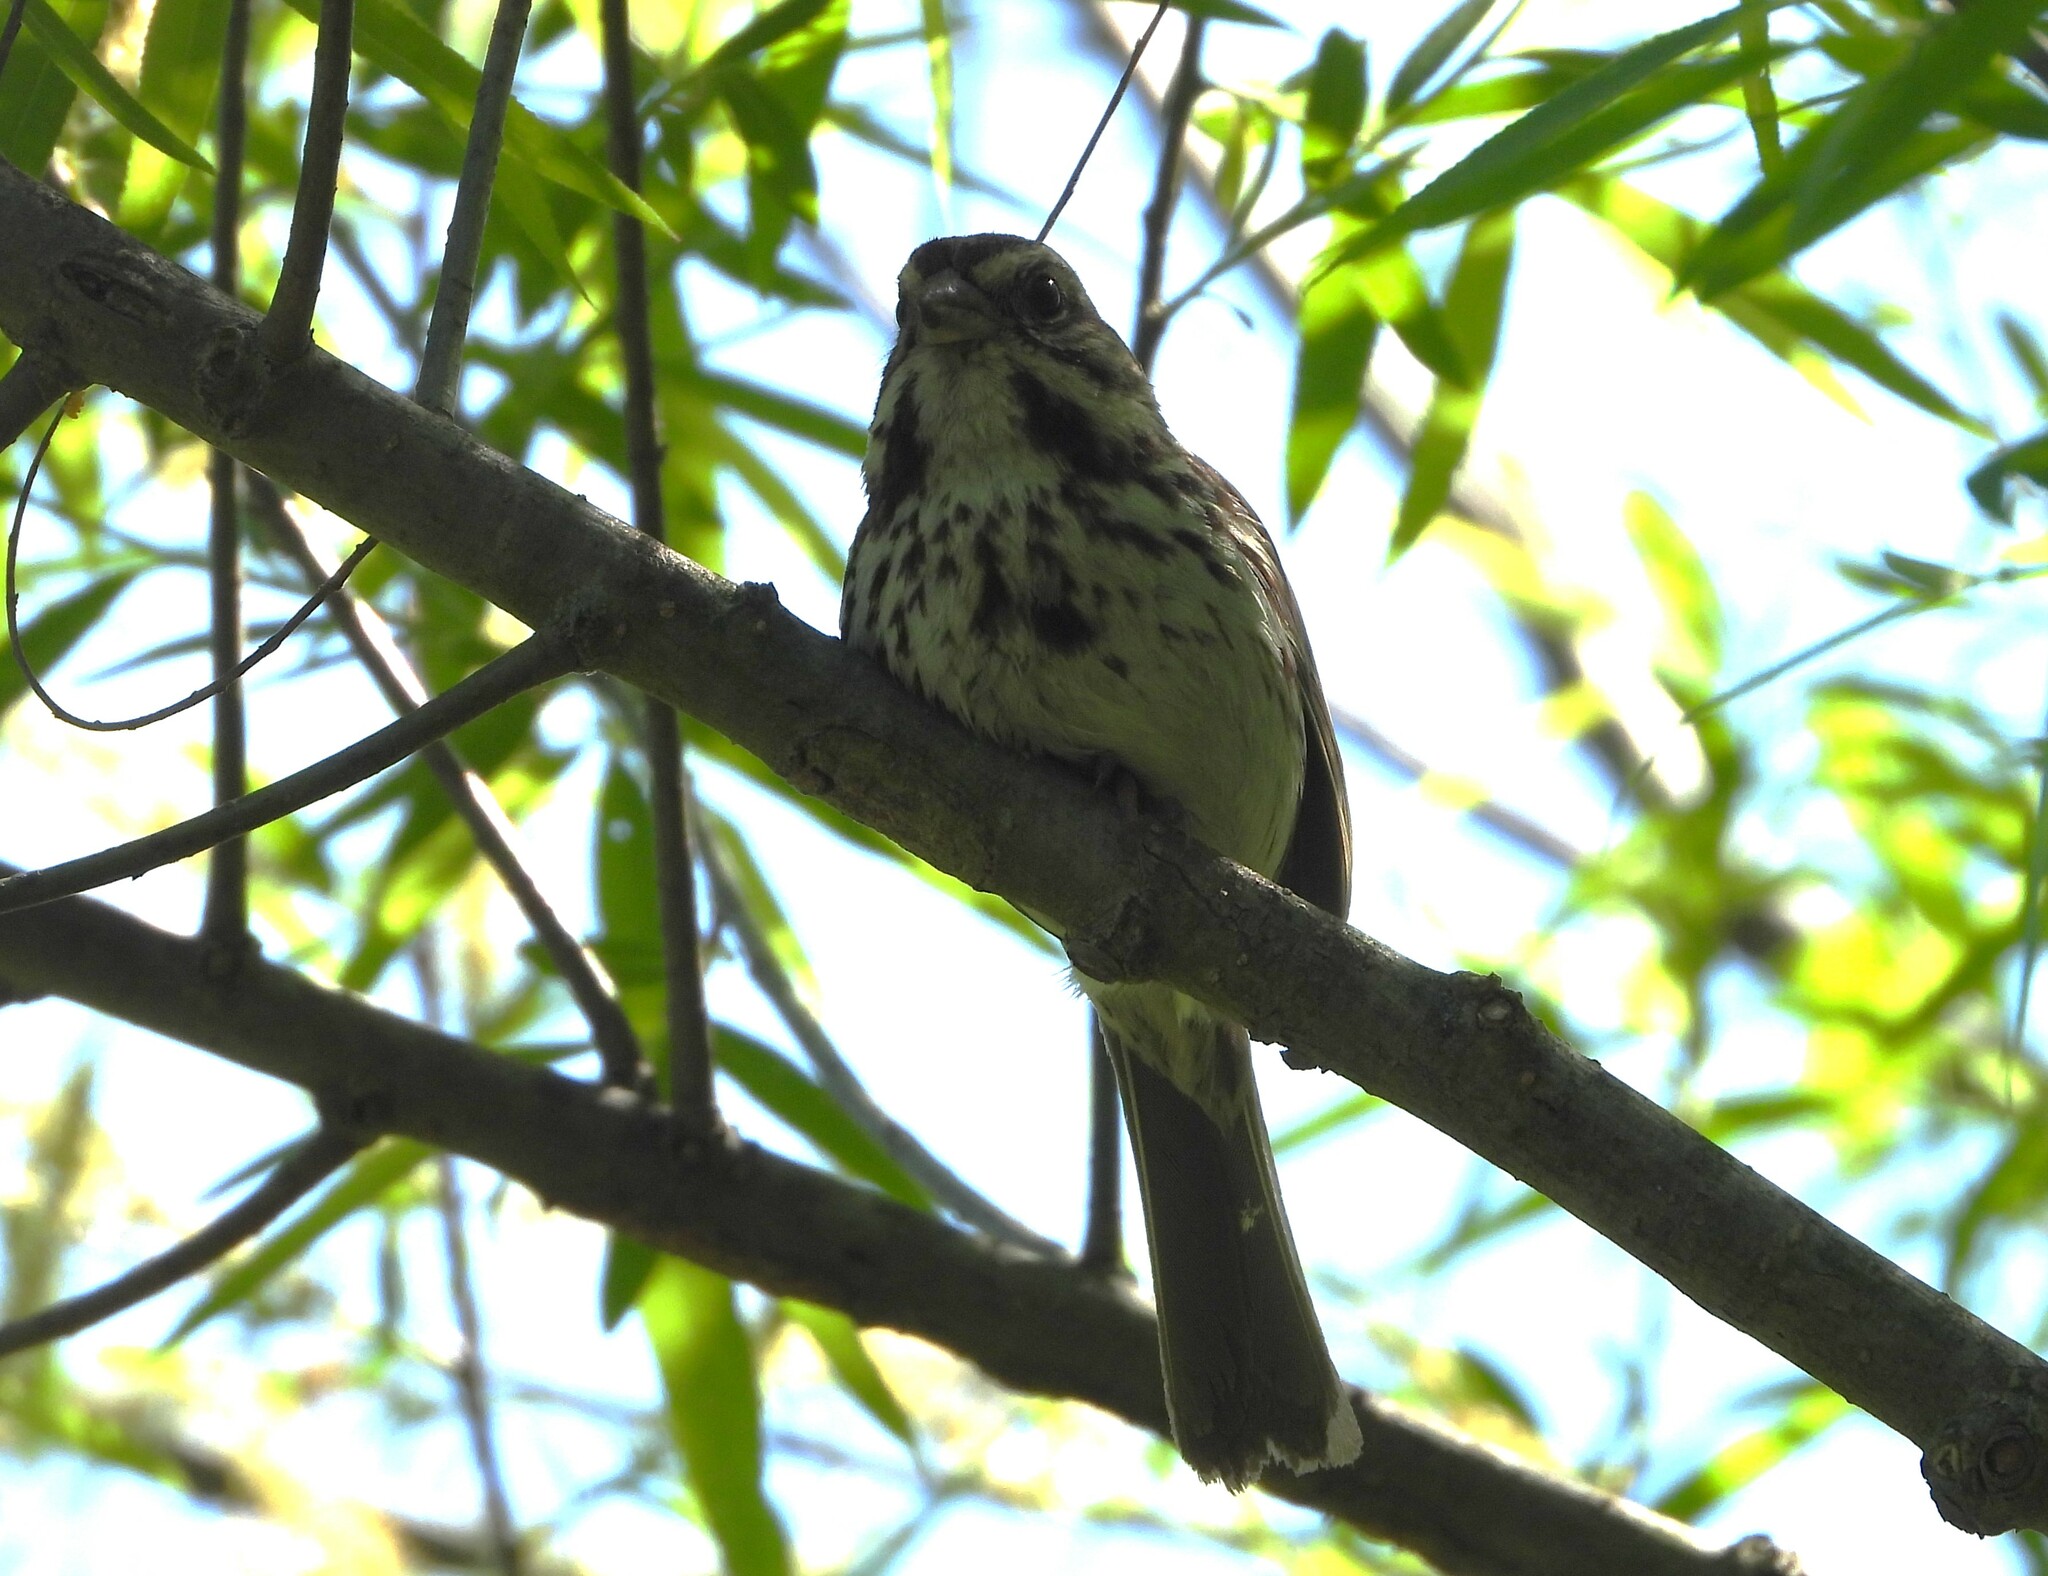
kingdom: Animalia
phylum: Chordata
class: Aves
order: Passeriformes
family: Passerellidae
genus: Melospiza
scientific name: Melospiza melodia
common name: Song sparrow
